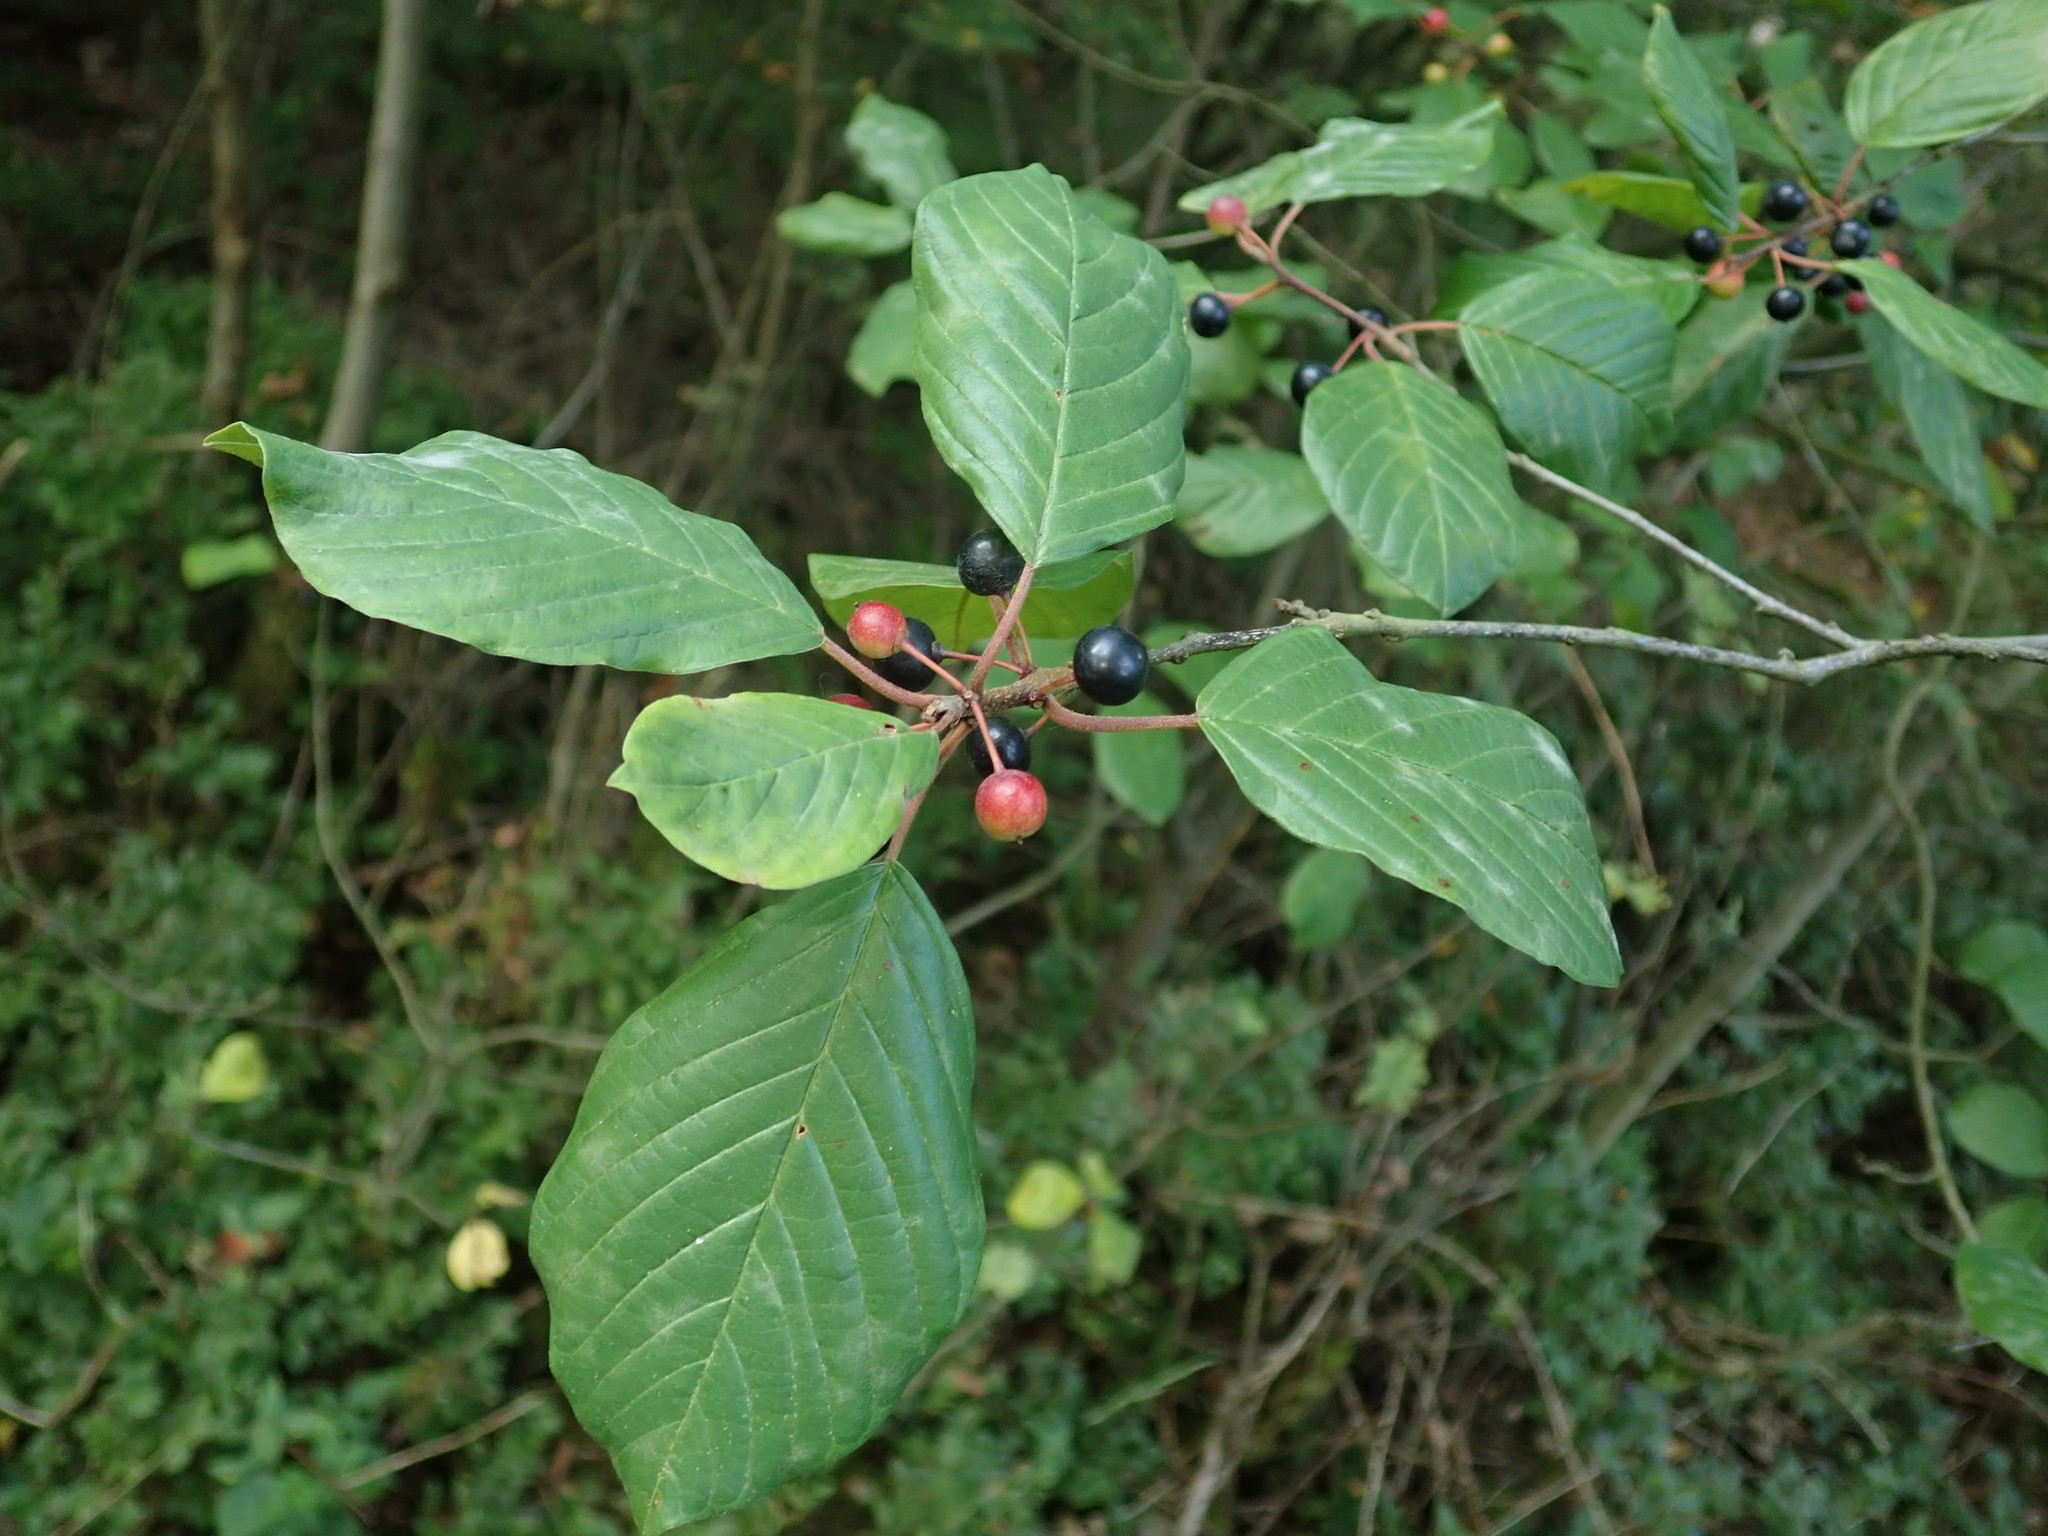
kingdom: Plantae
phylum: Tracheophyta
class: Magnoliopsida
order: Rosales
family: Rhamnaceae
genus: Frangula
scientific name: Frangula alnus
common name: Alder buckthorn
